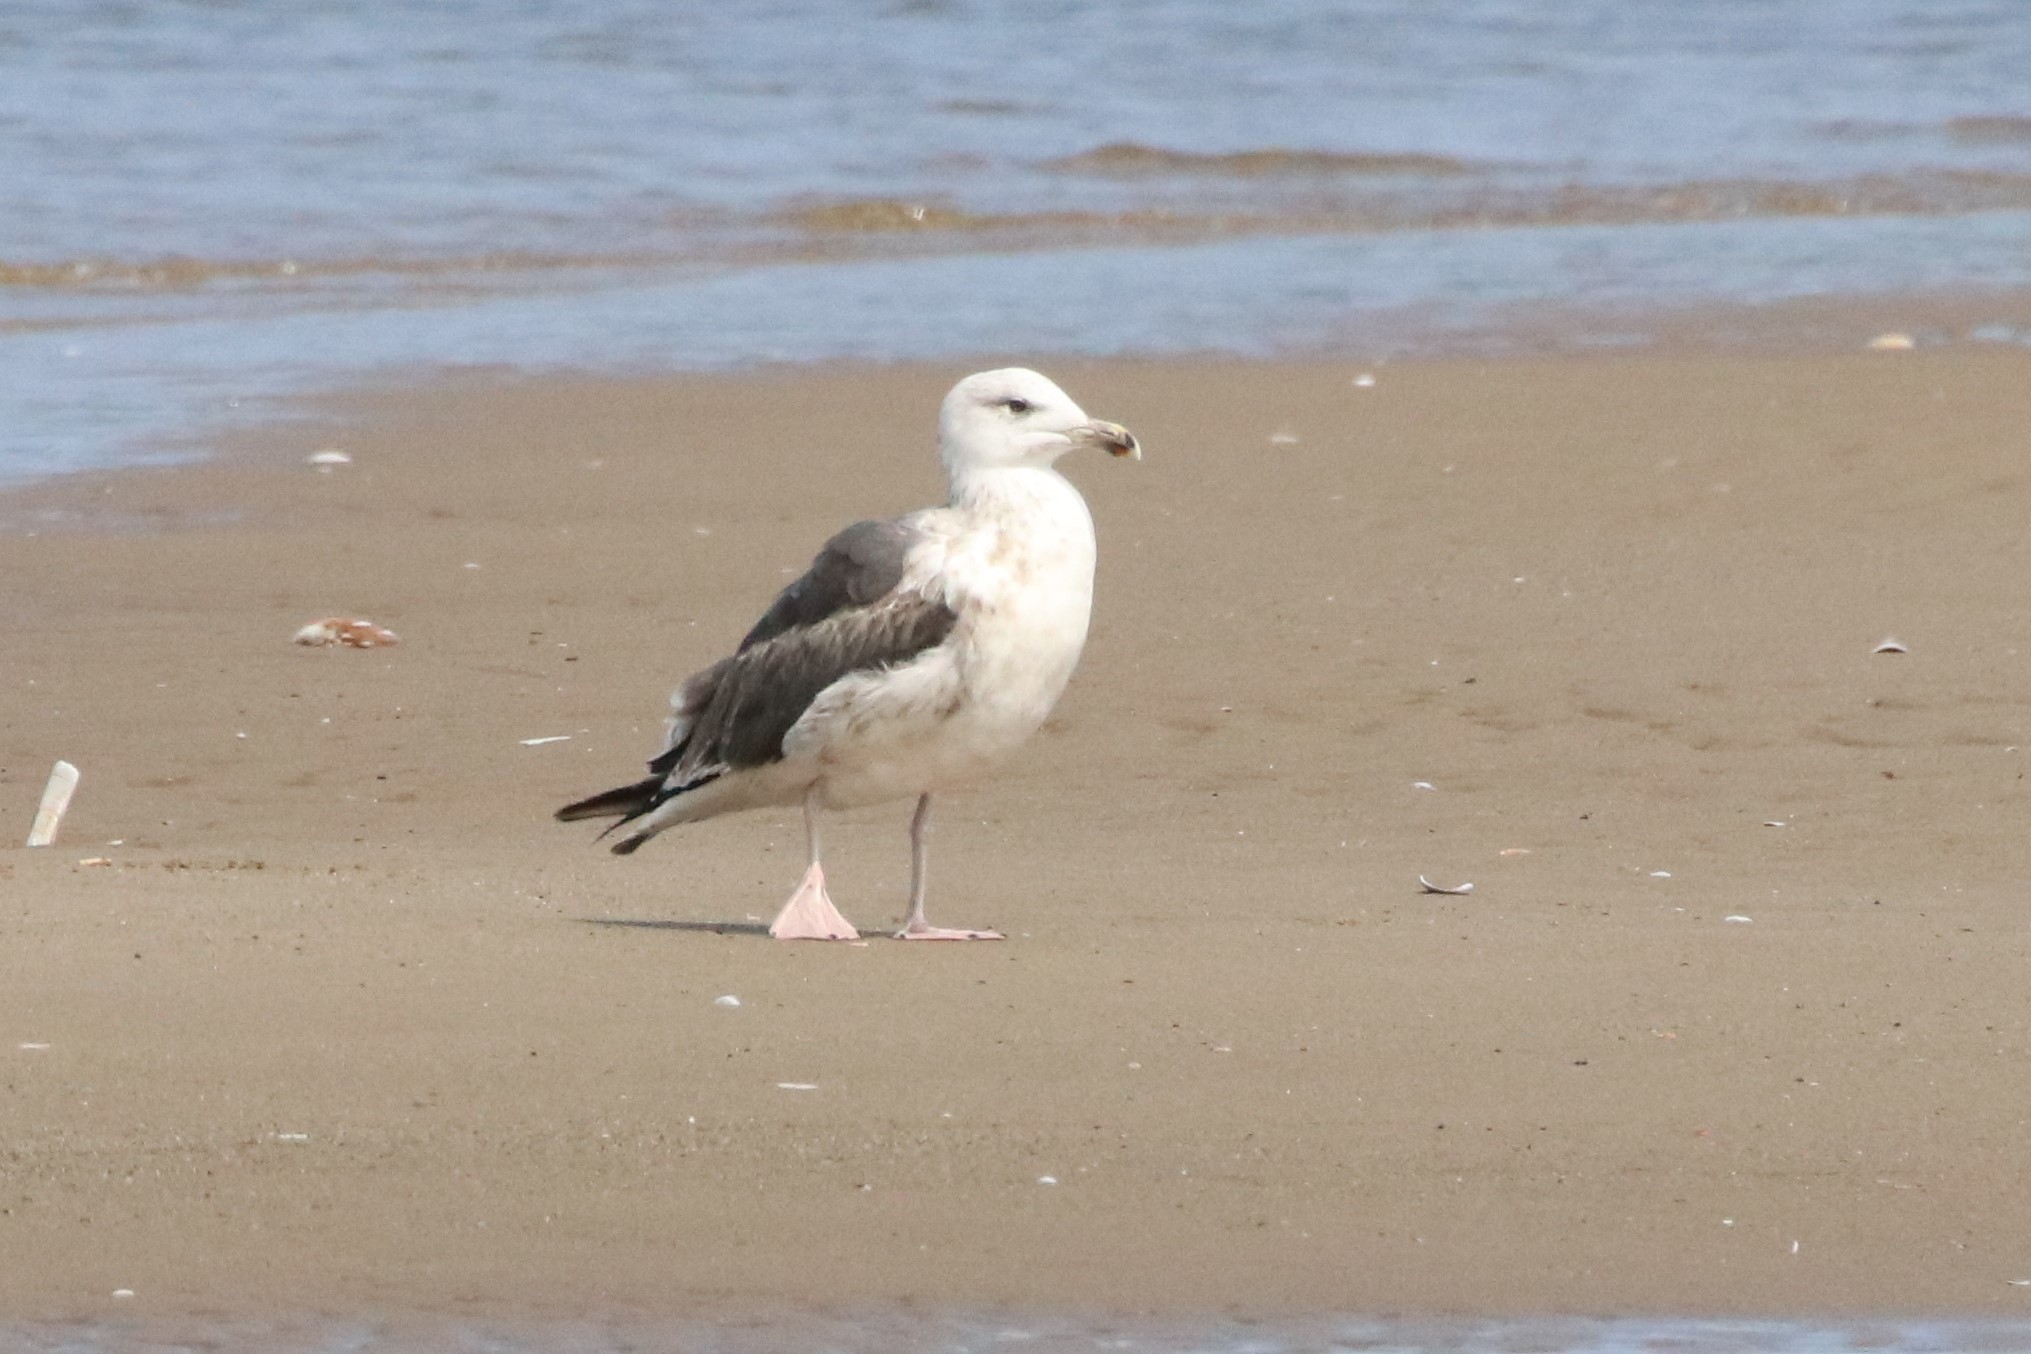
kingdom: Animalia
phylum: Chordata
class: Aves
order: Charadriiformes
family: Laridae
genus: Larus
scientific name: Larus marinus
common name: Great black-backed gull
